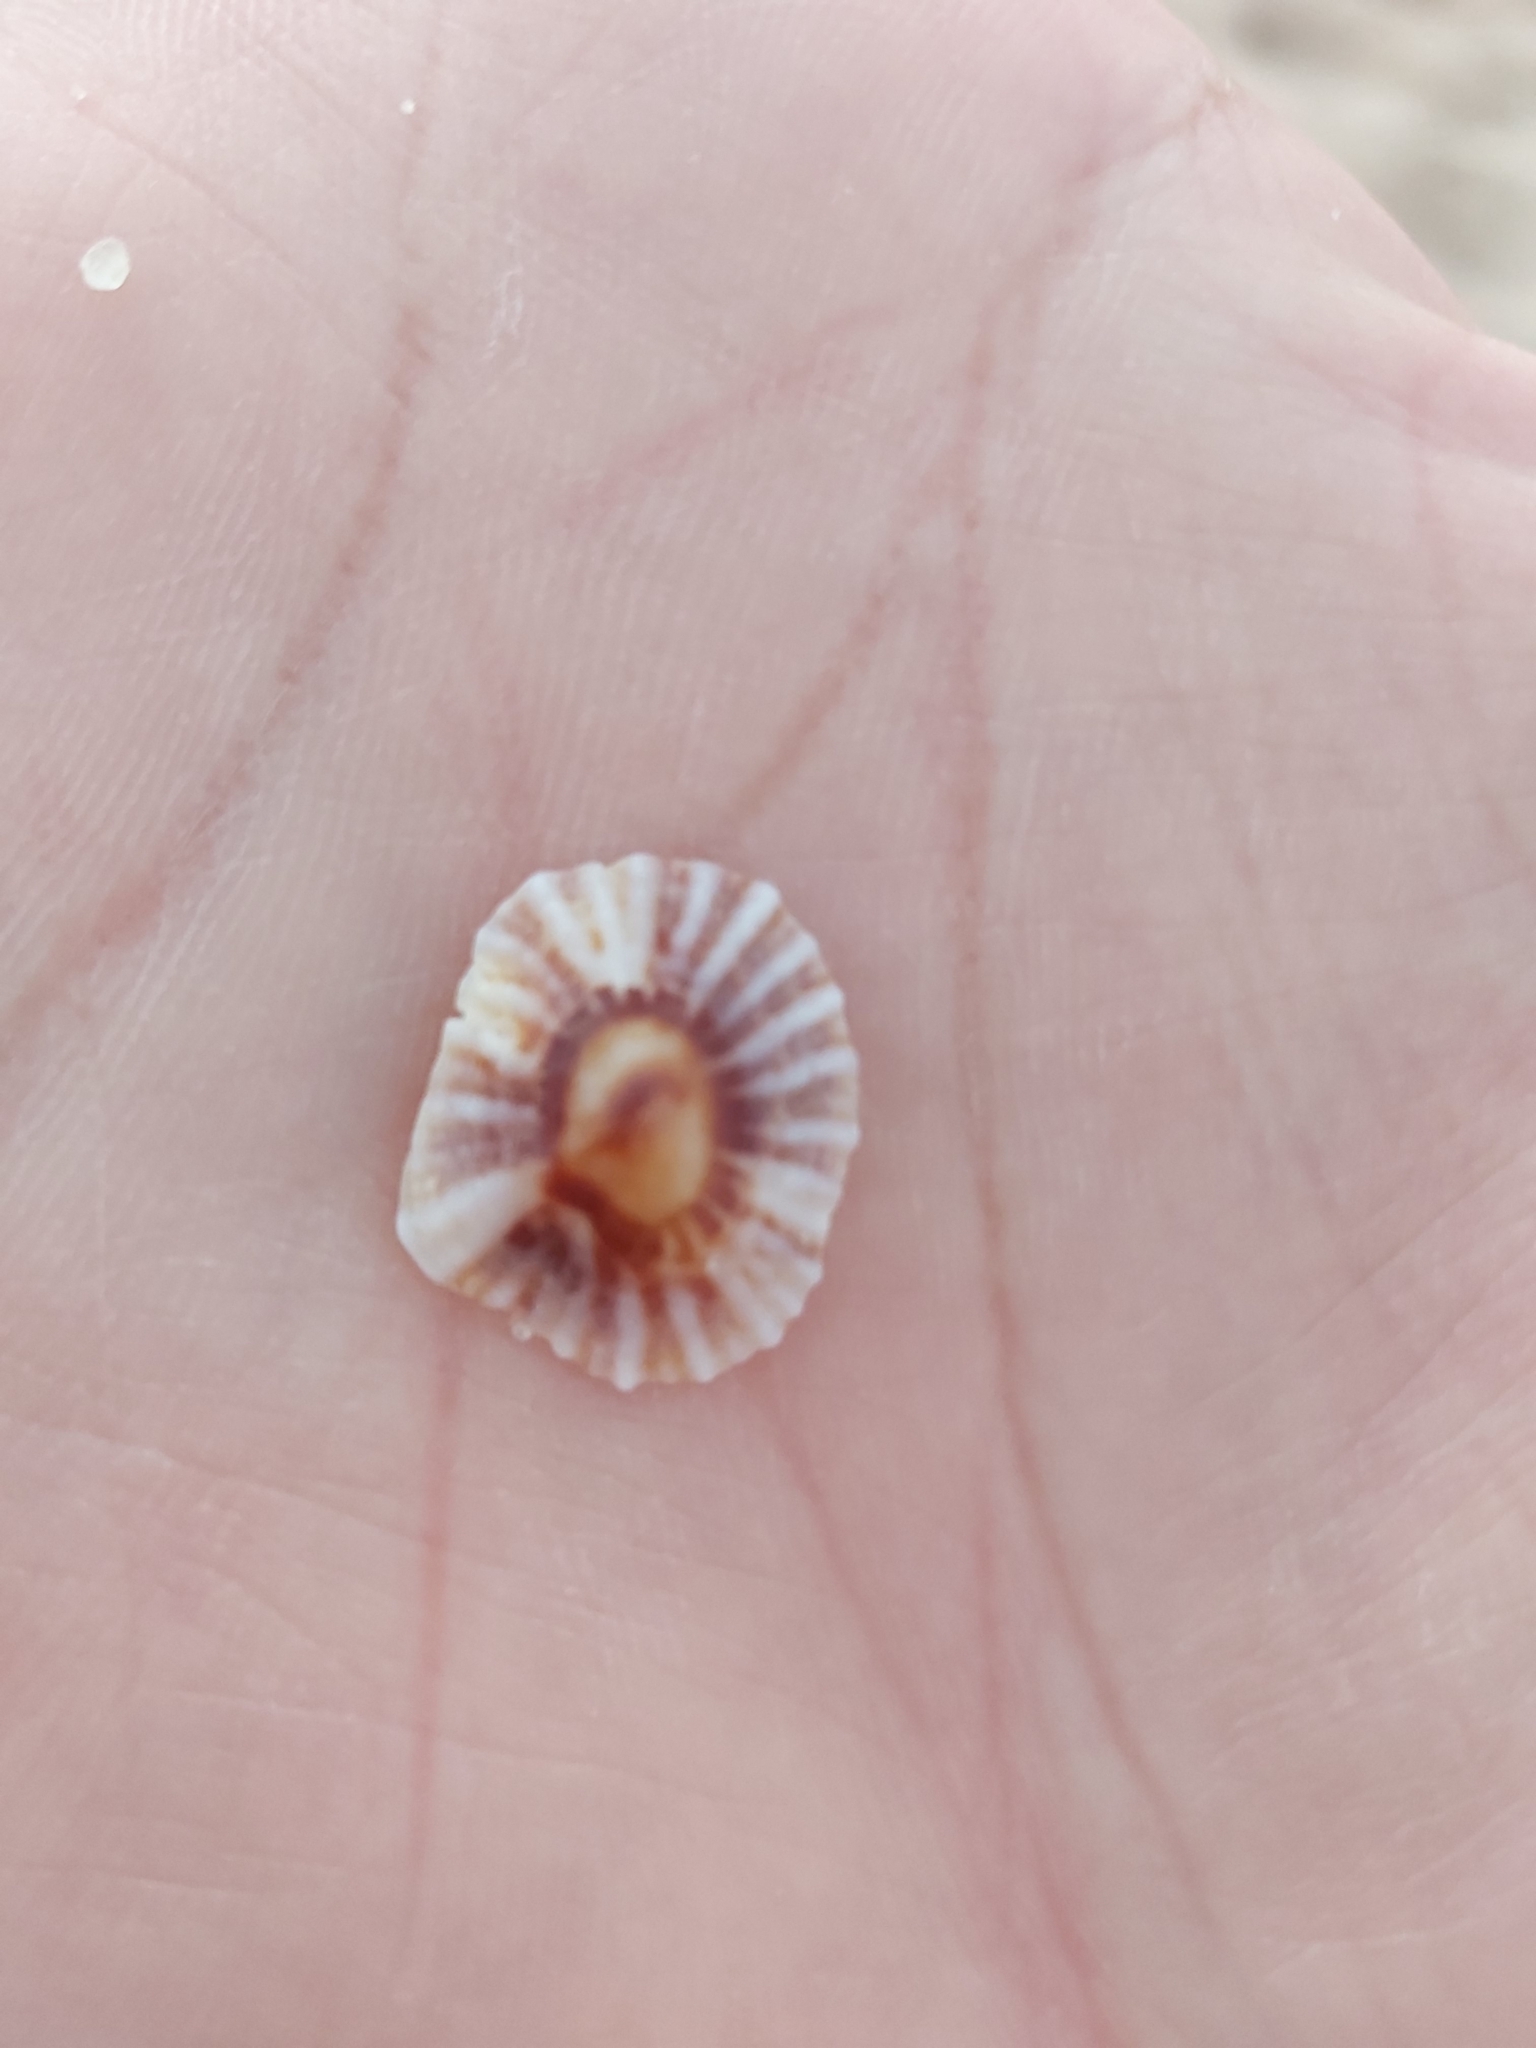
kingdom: Animalia
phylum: Mollusca
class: Gastropoda
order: Siphonariida
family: Siphonariidae
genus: Siphonaria
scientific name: Siphonaria denticulata
